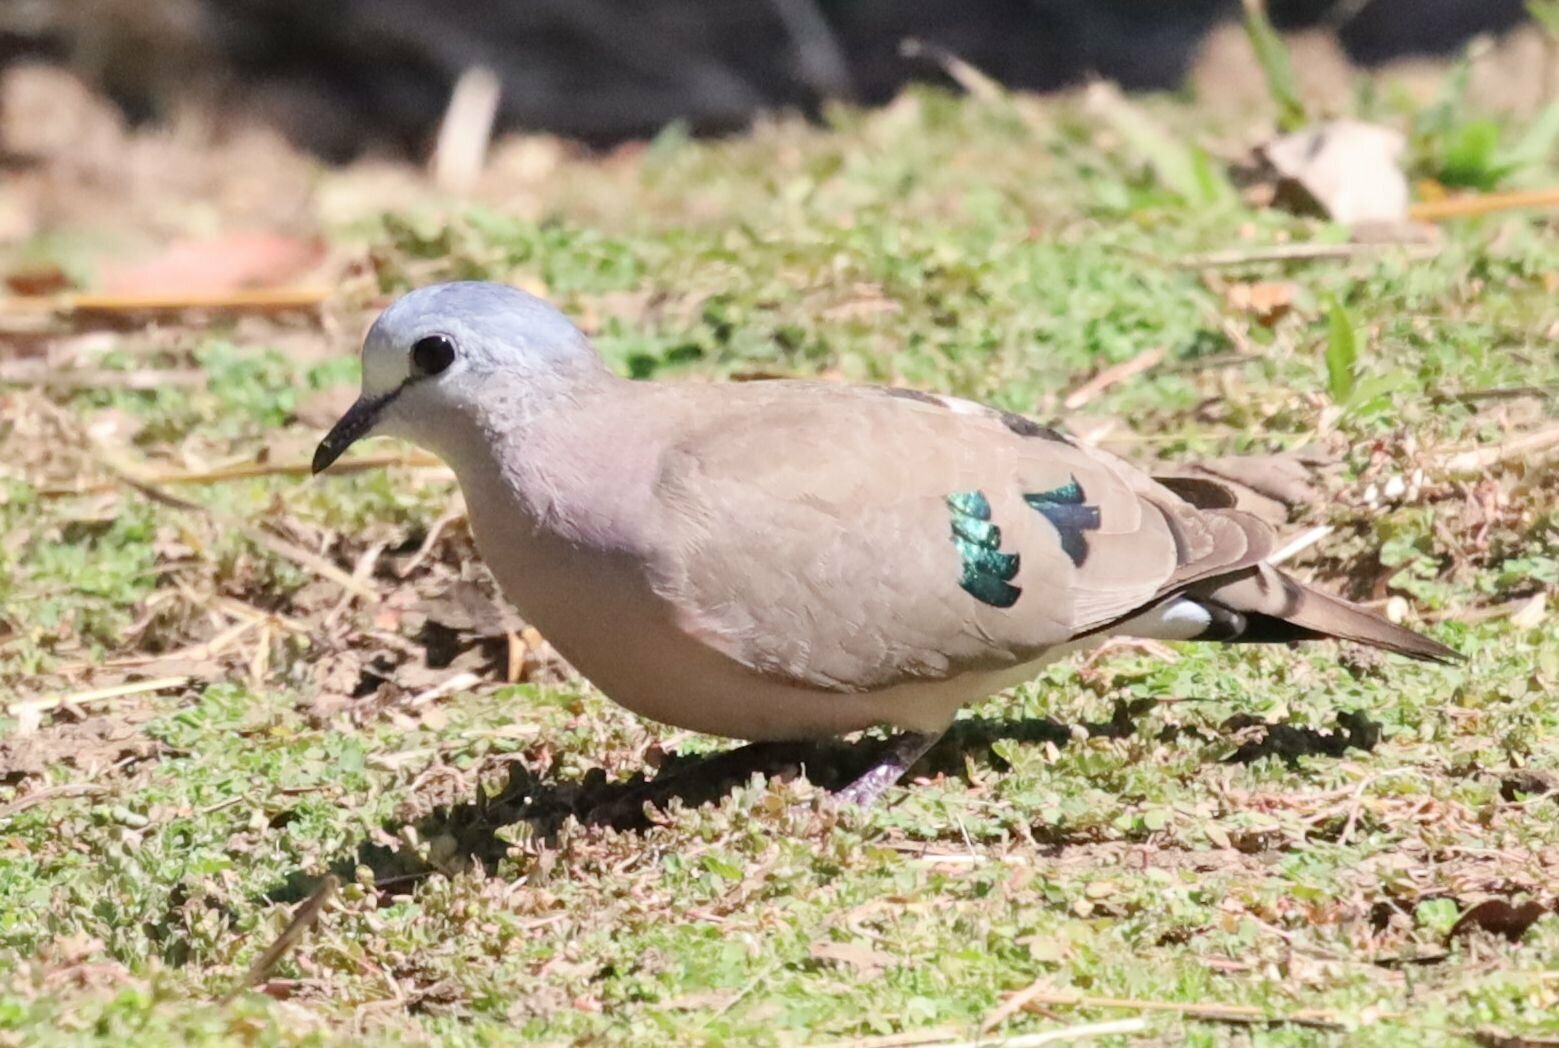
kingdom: Animalia
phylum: Chordata
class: Aves
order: Columbiformes
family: Columbidae
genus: Turtur
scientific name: Turtur chalcospilos
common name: Emerald-spotted wood dove
